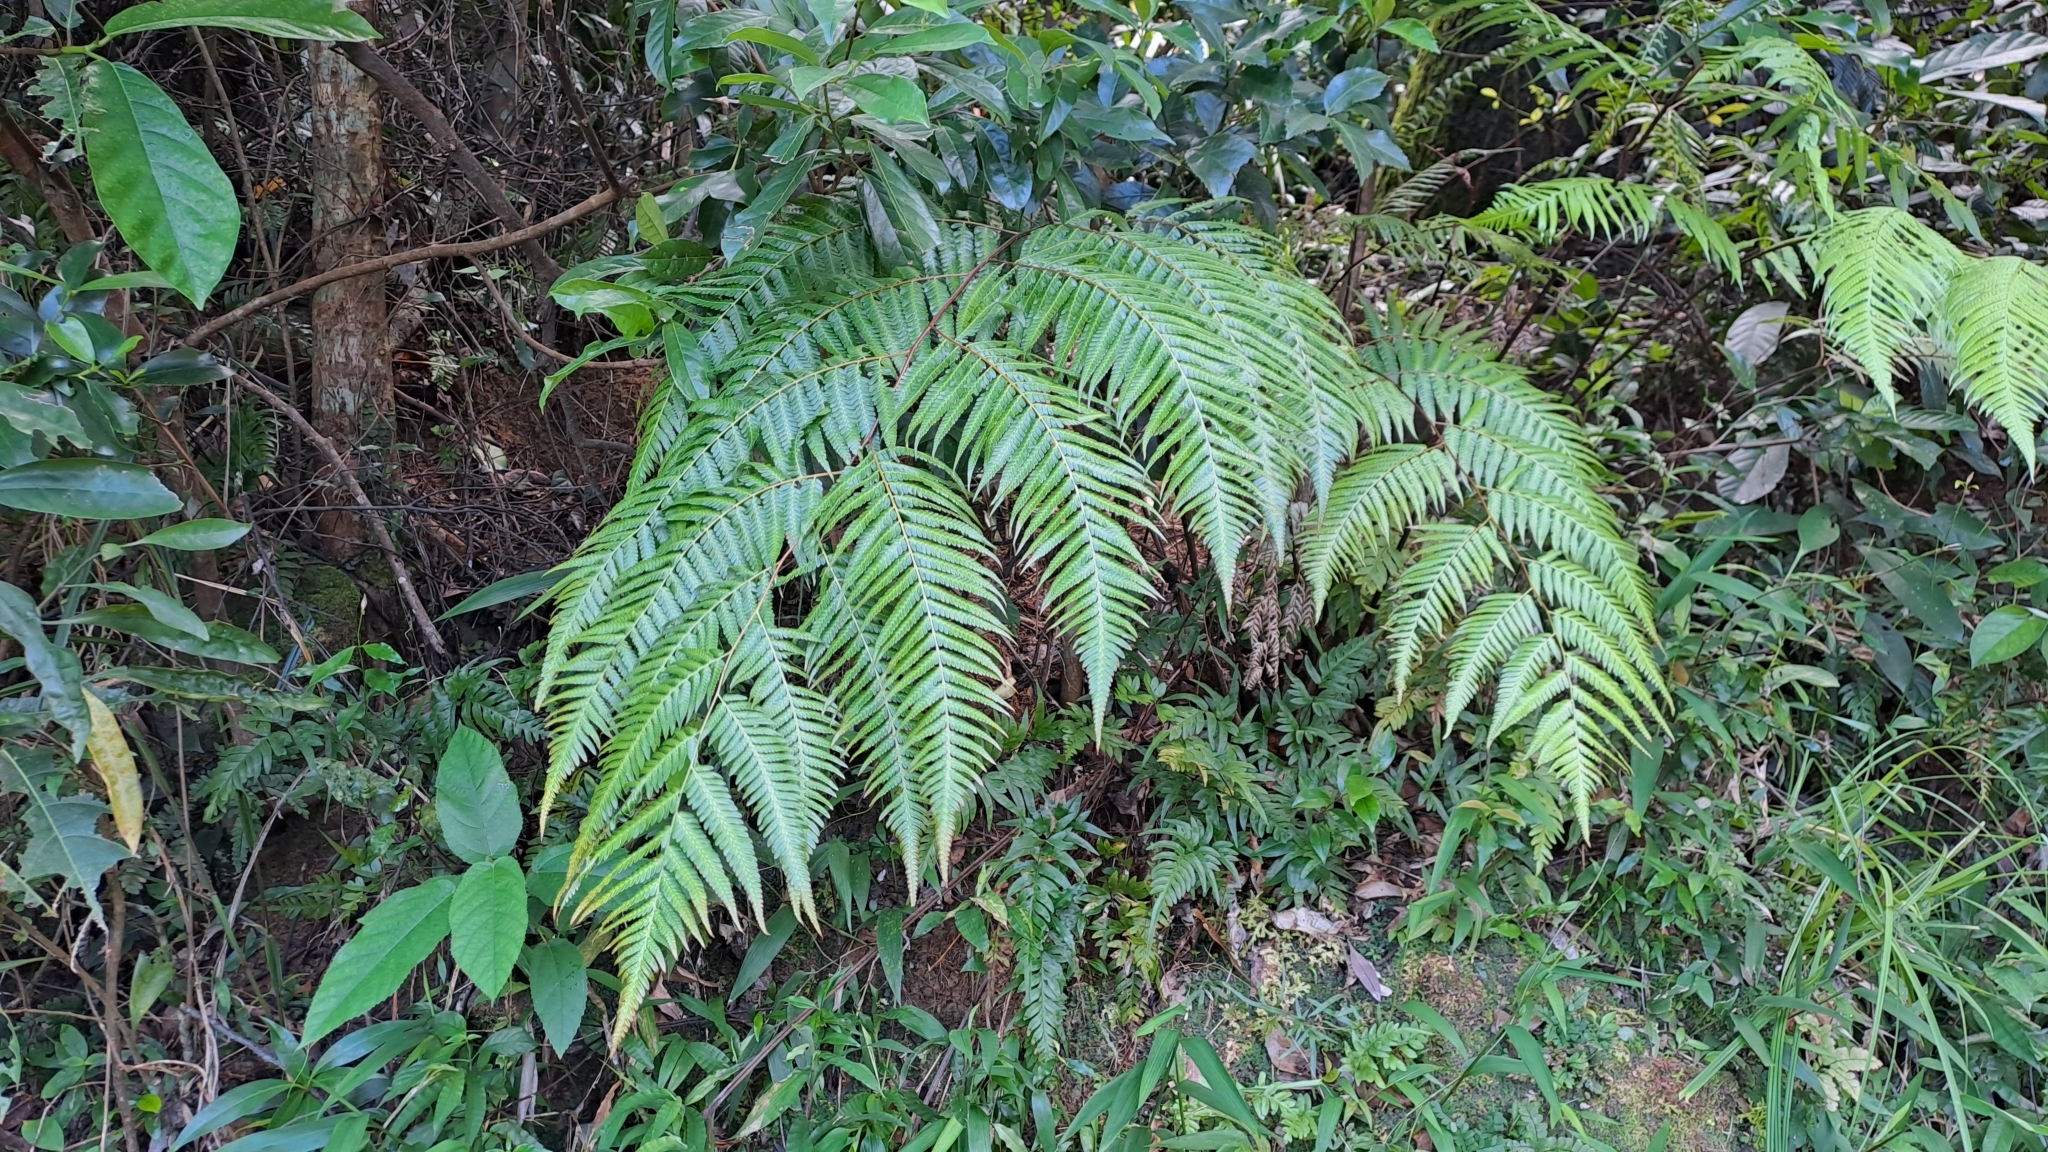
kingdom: Plantae
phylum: Tracheophyta
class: Polypodiopsida
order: Cyatheales
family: Cibotiaceae
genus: Cibotium
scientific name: Cibotium barometz
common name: Scythian-lamb
